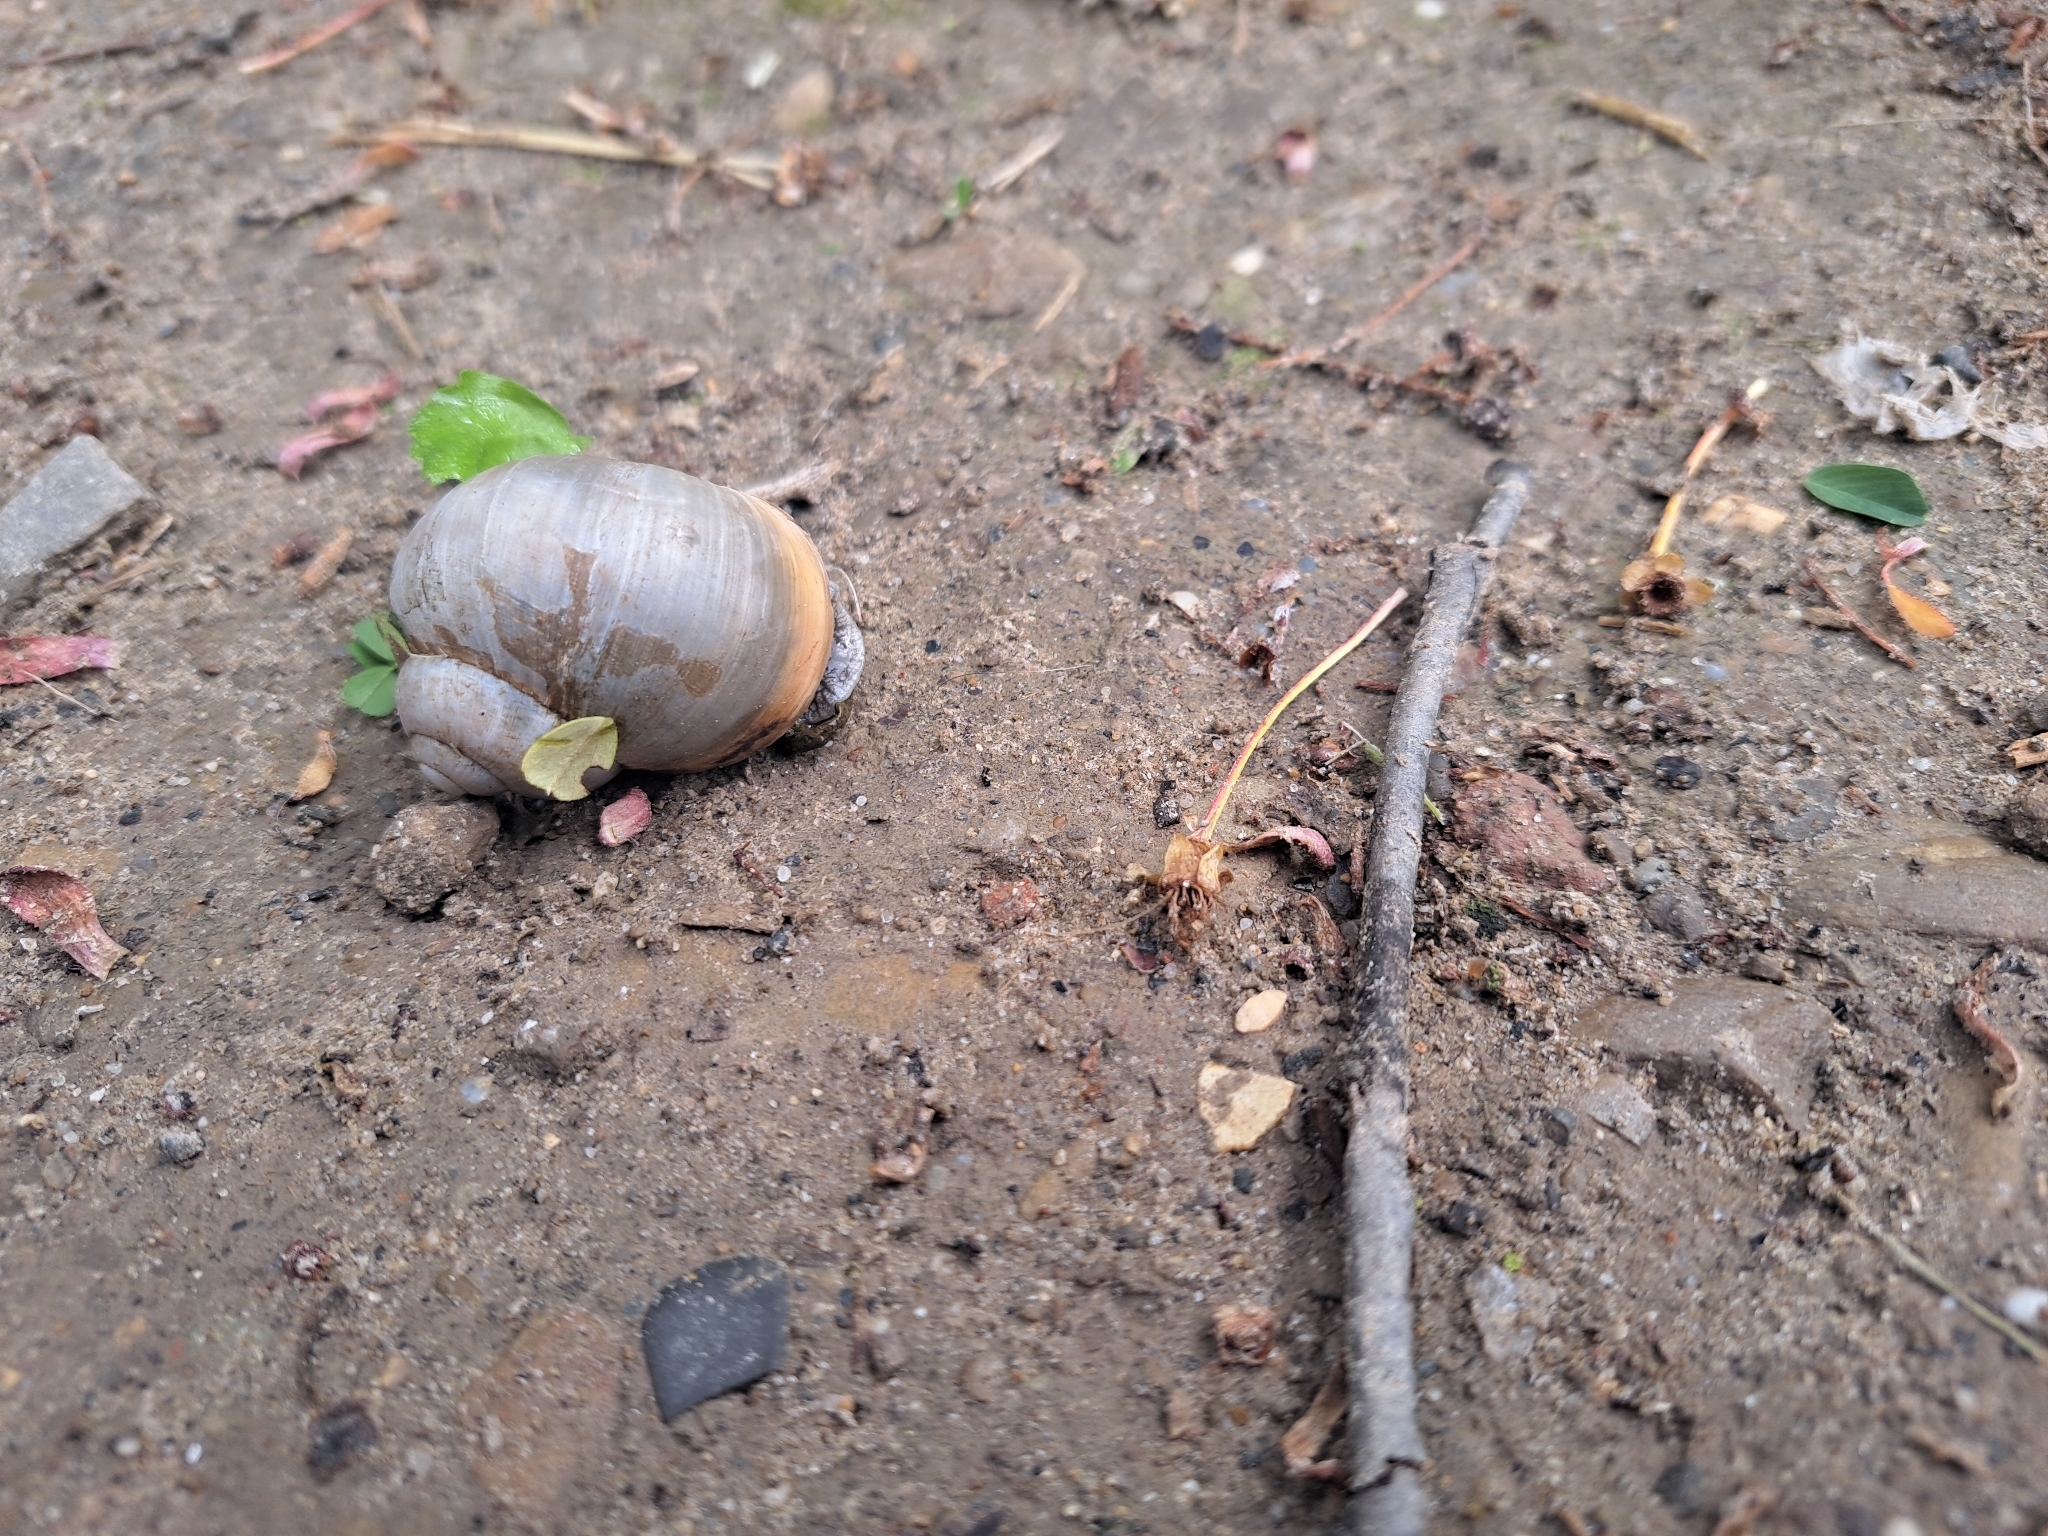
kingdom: Animalia
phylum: Mollusca
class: Gastropoda
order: Stylommatophora
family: Helicidae
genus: Helix
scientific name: Helix lutescens
